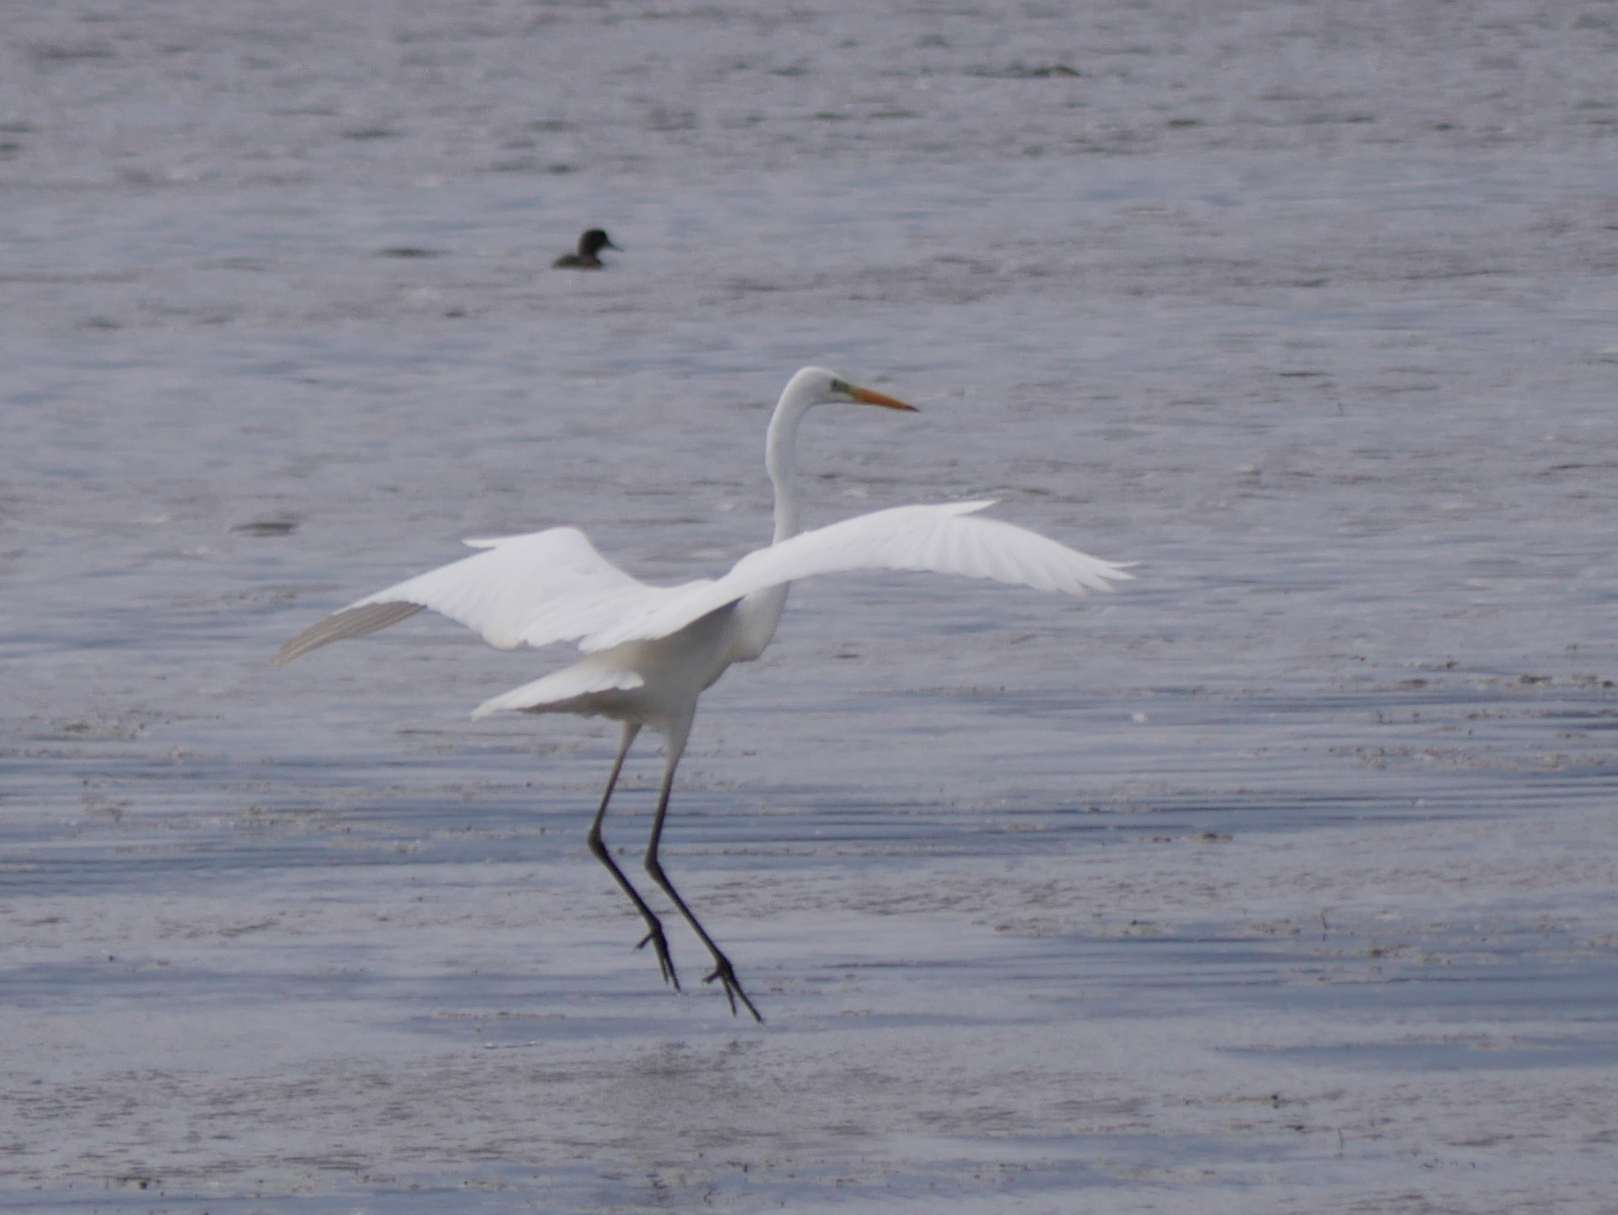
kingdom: Animalia
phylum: Chordata
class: Aves
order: Pelecaniformes
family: Ardeidae
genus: Ardea
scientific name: Ardea alba
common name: Great egret
